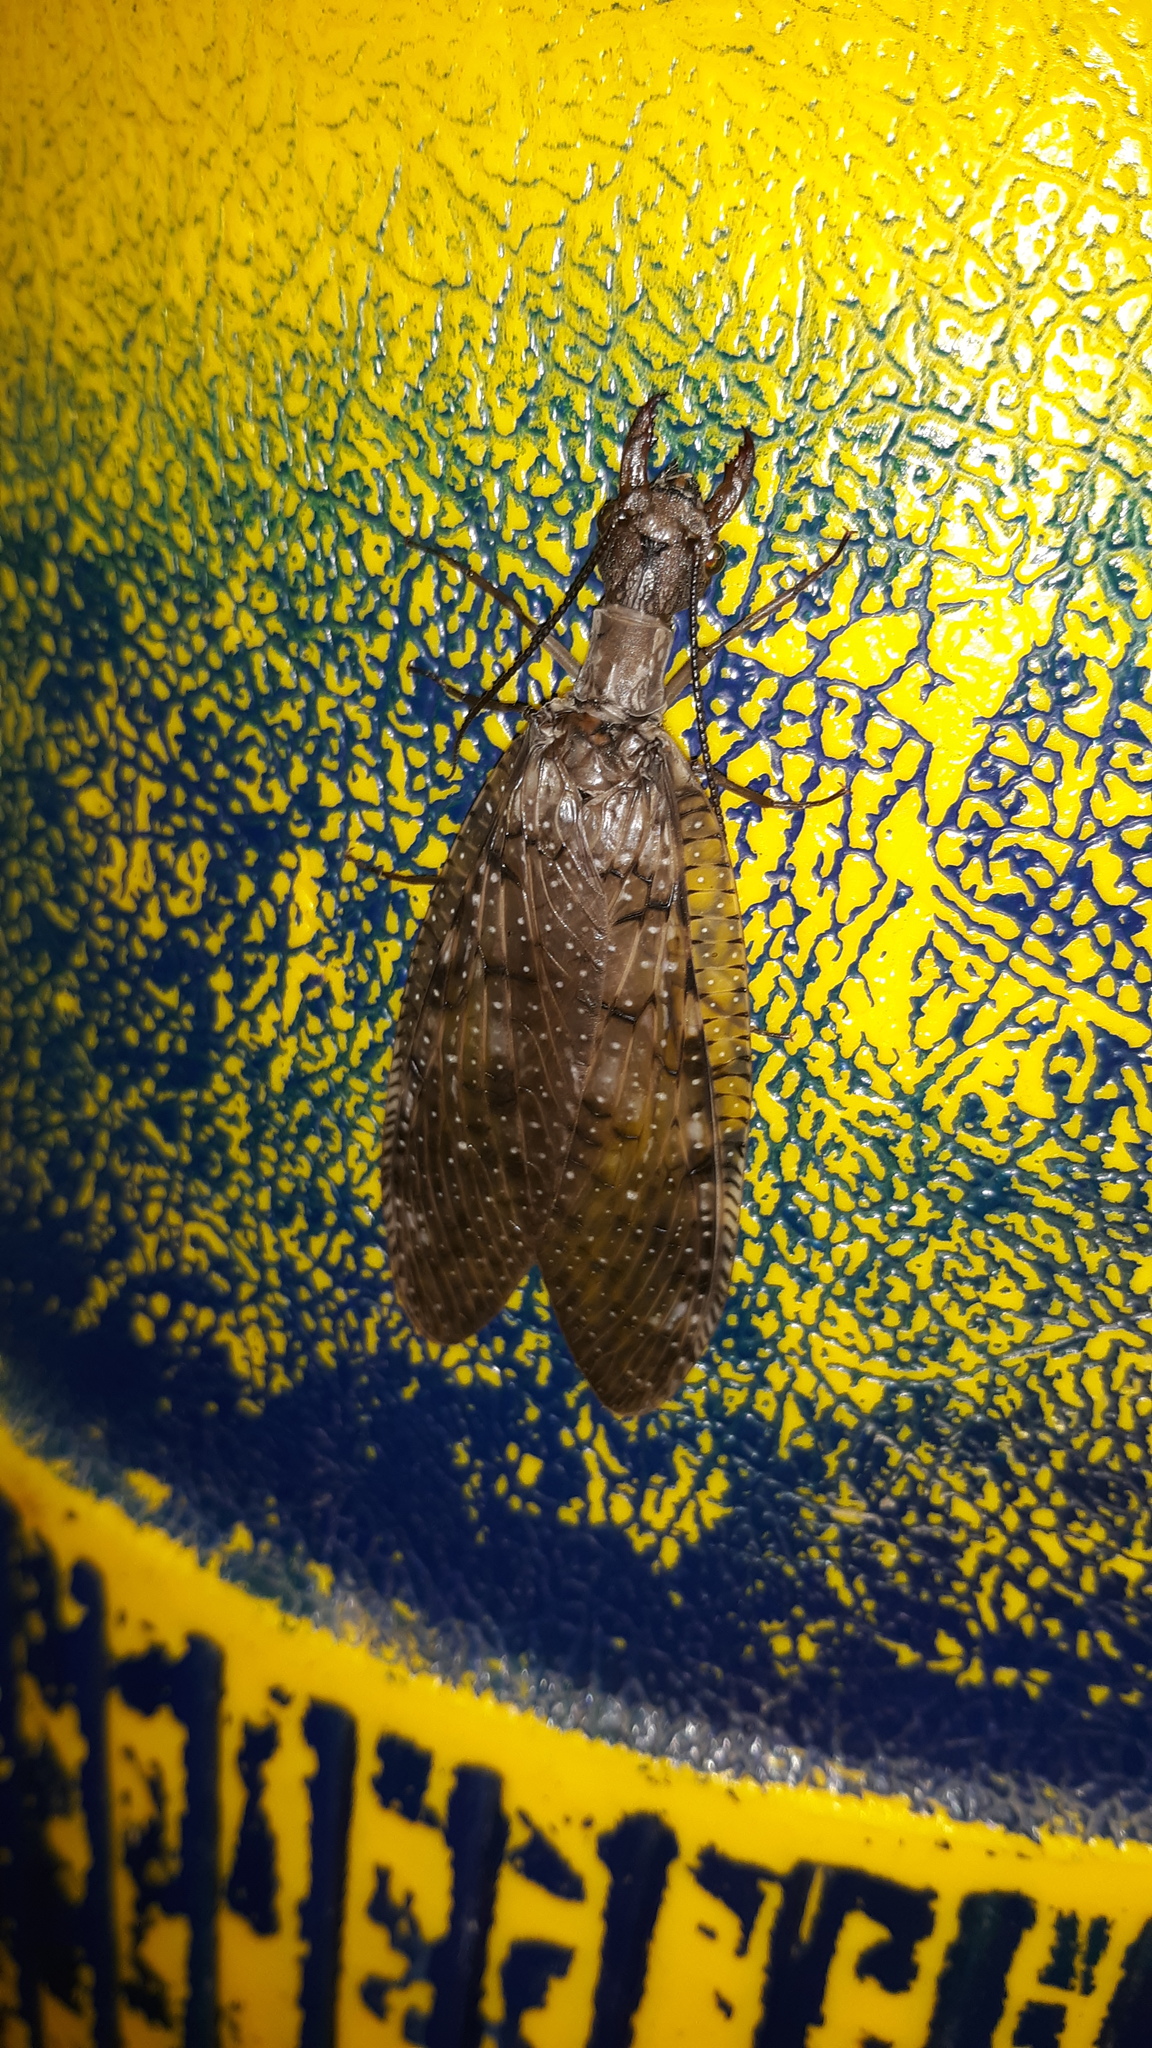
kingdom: Animalia
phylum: Arthropoda
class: Insecta
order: Megaloptera
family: Corydalidae
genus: Corydalus
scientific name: Corydalus cornutus
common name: Dobsonfly
